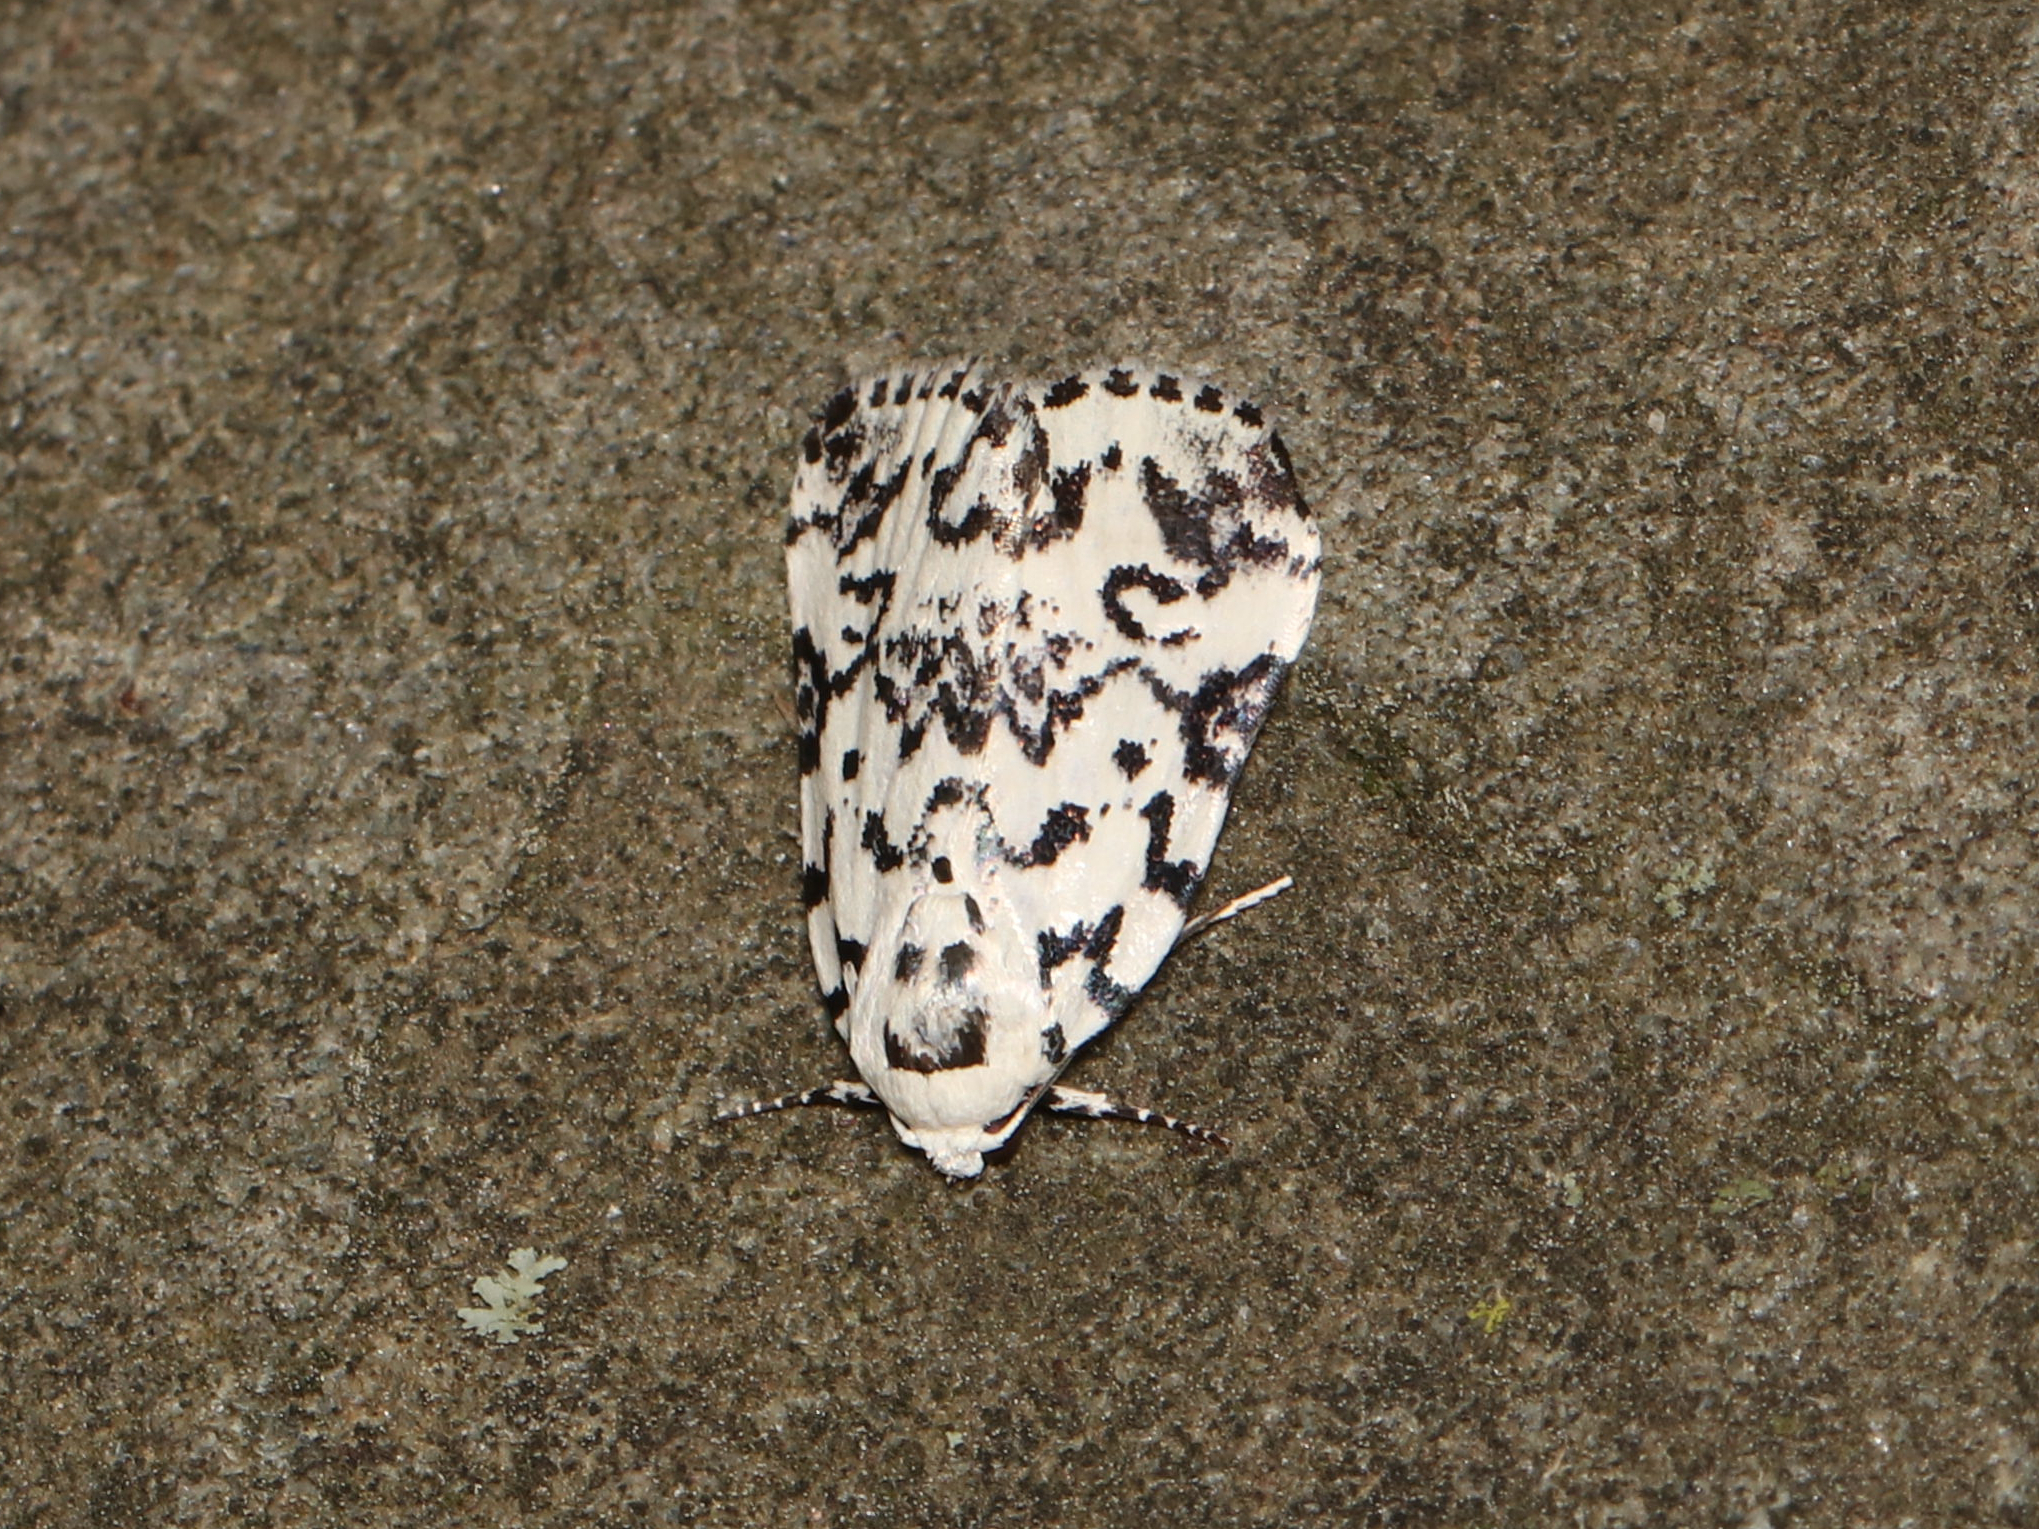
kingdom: Animalia
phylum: Arthropoda
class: Insecta
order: Lepidoptera
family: Noctuidae
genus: Polygrammate
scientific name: Polygrammate hebraeicum
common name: Hebrew moth
